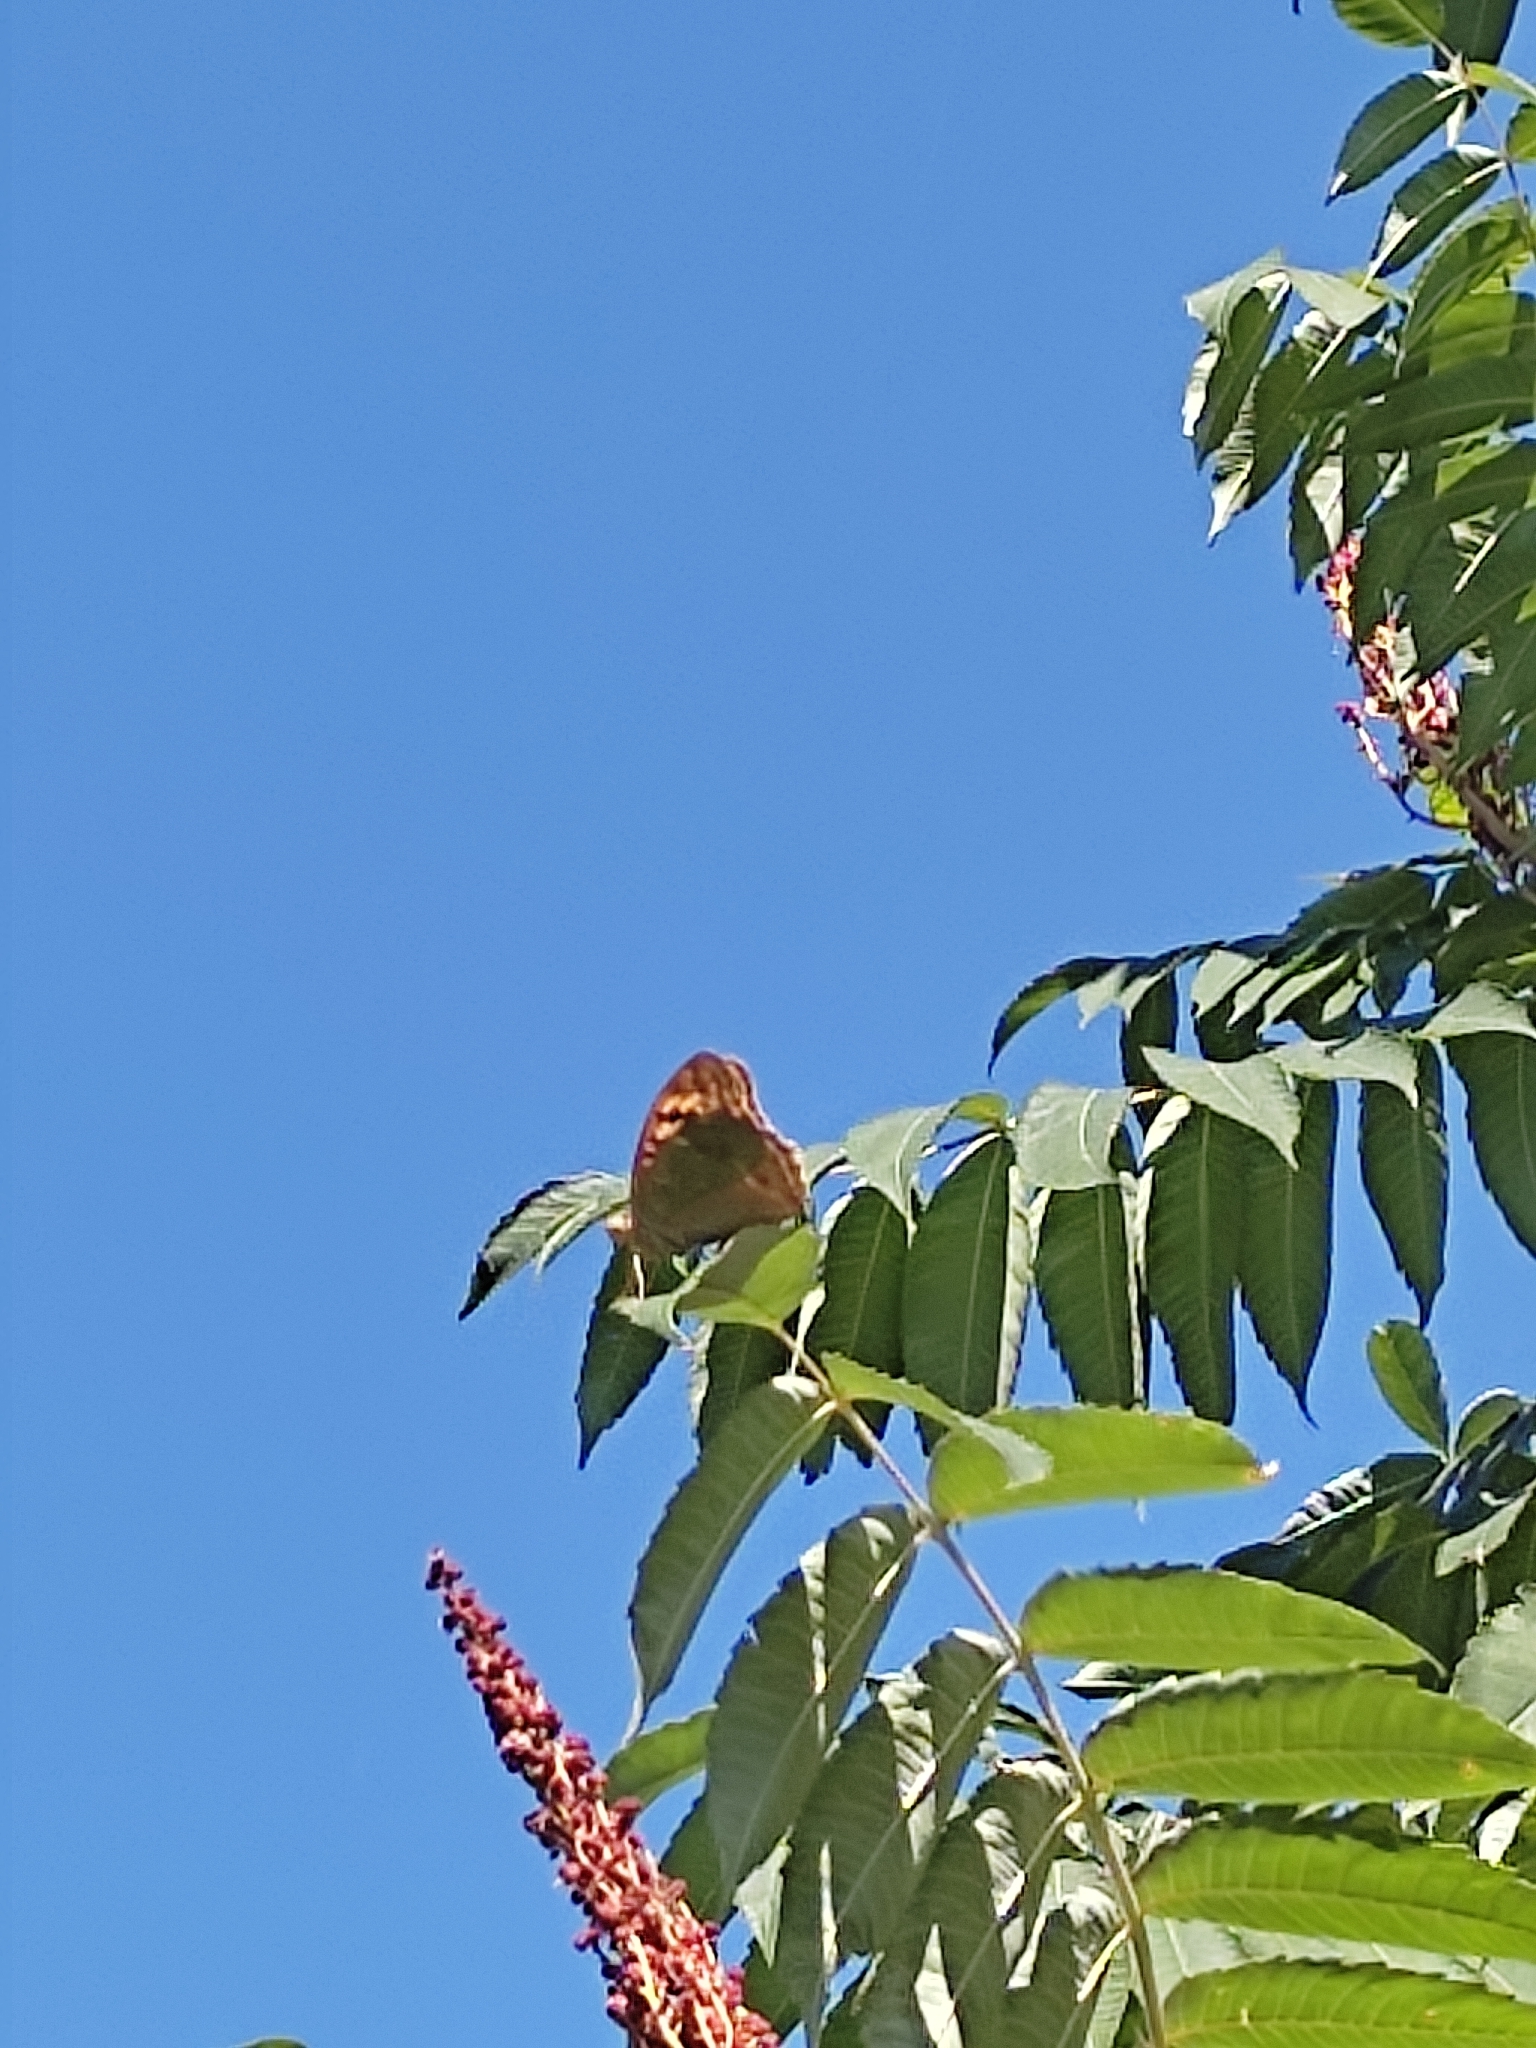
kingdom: Animalia
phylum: Arthropoda
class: Insecta
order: Lepidoptera
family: Nymphalidae
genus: Damora
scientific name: Damora pandora
